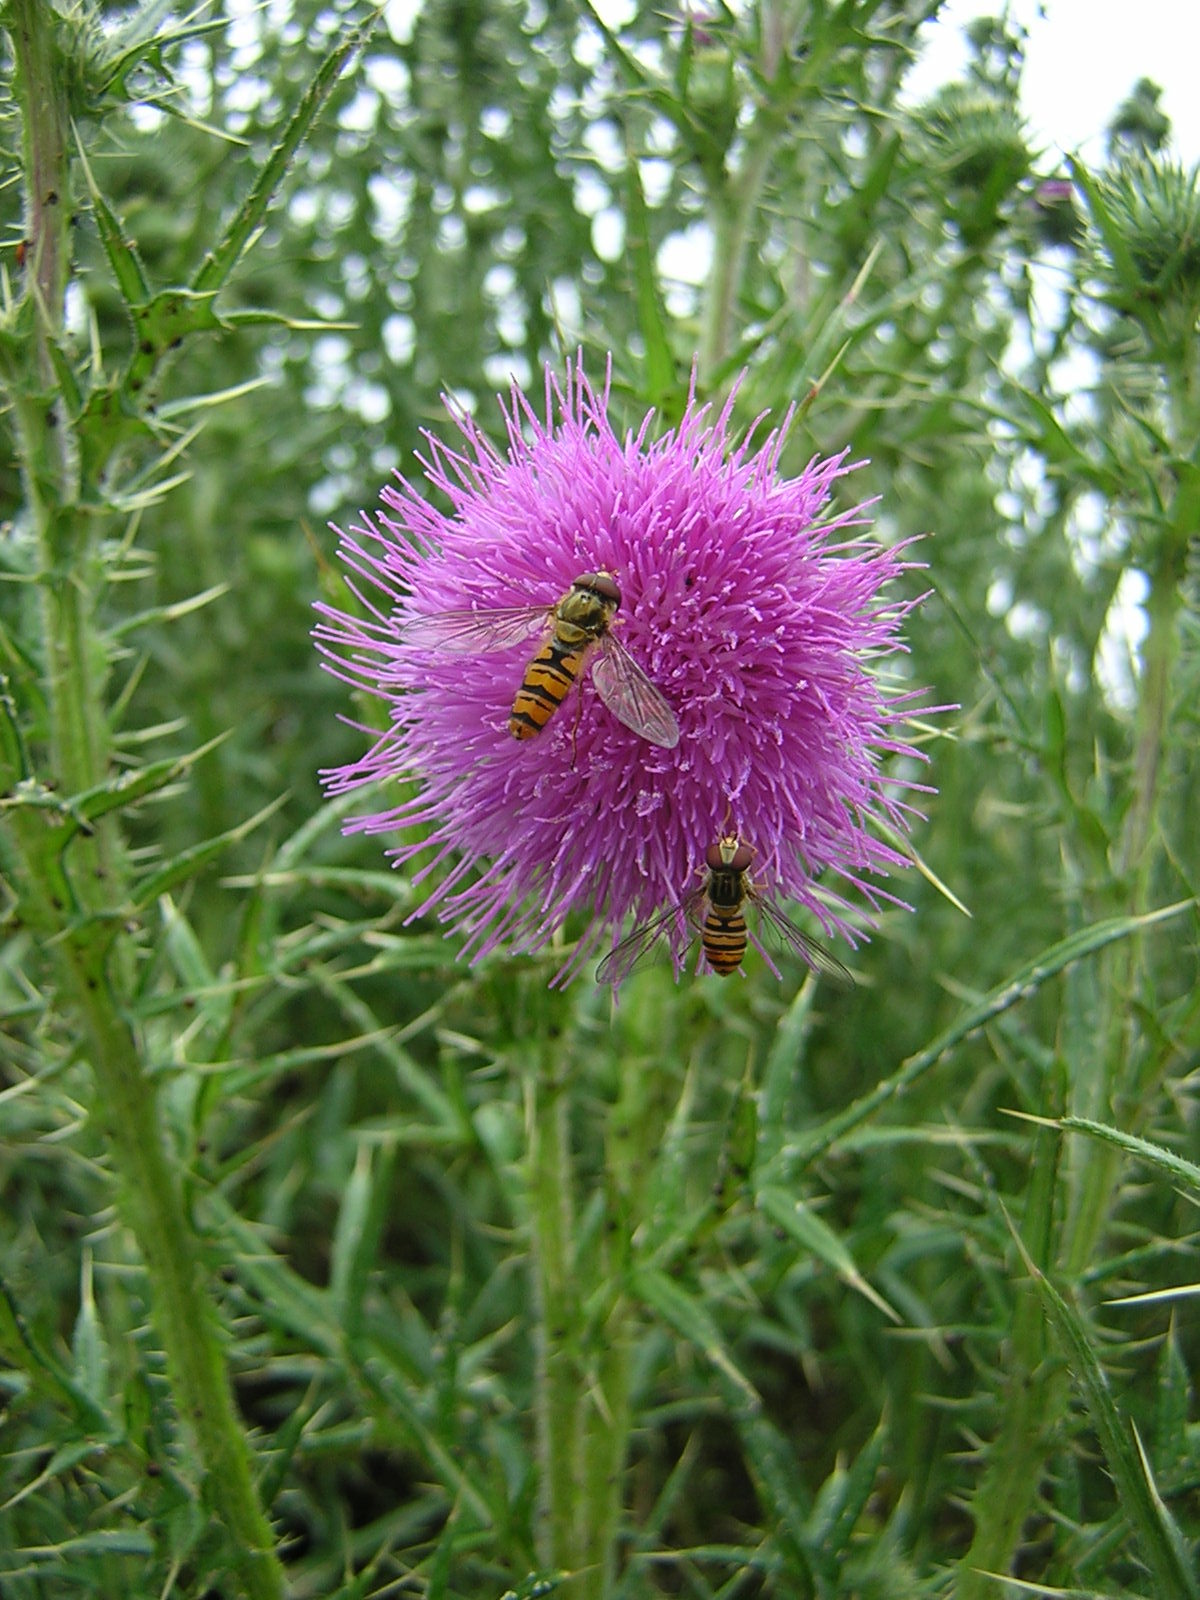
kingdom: Plantae
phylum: Tracheophyta
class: Magnoliopsida
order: Asterales
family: Asteraceae
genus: Cirsium
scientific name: Cirsium vulgare
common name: Bull thistle
